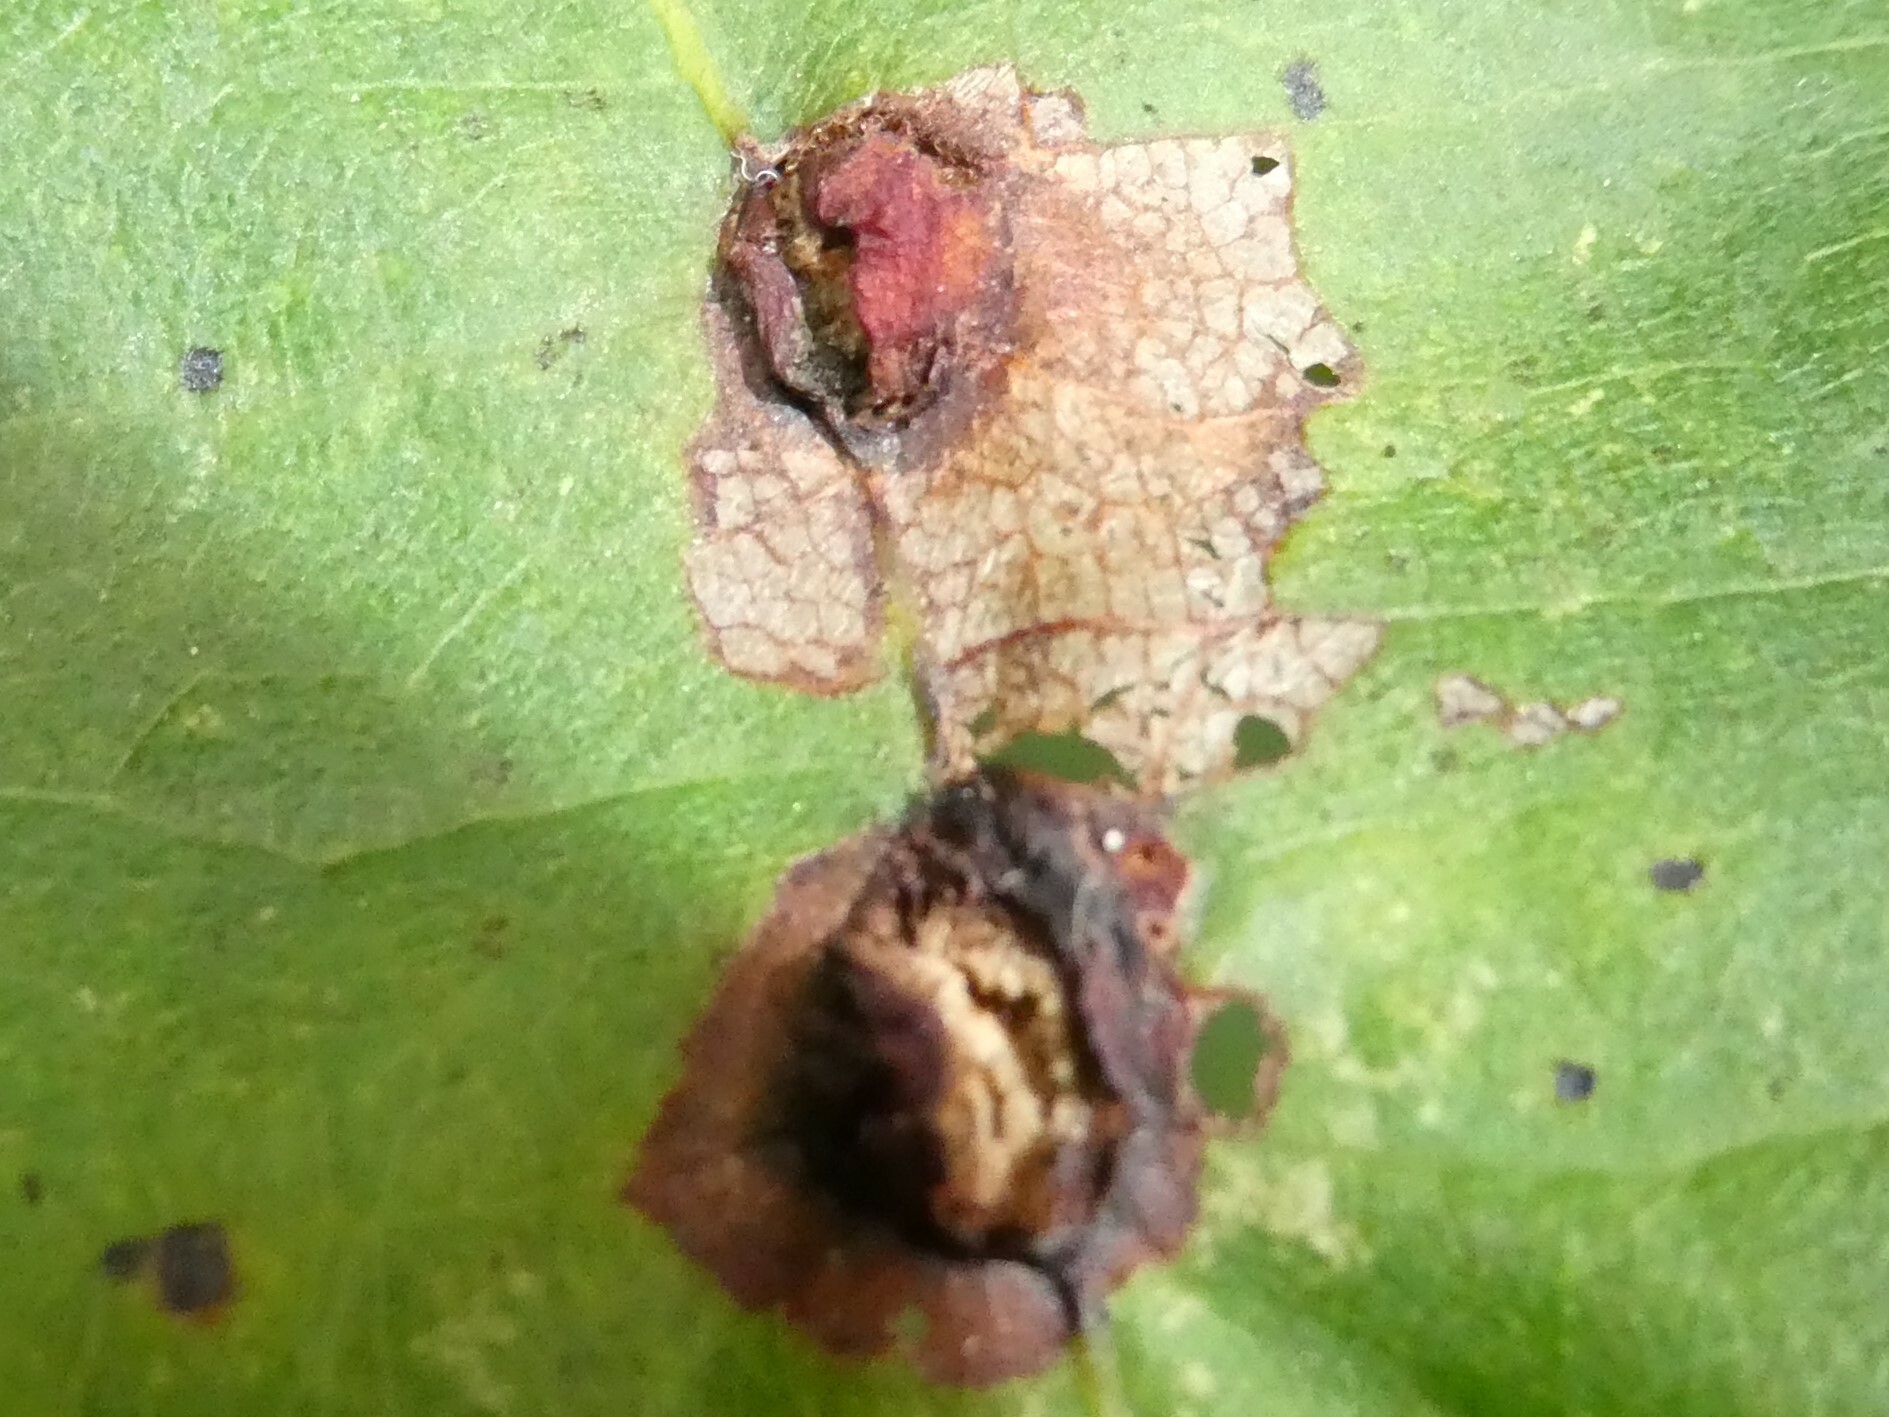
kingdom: Animalia
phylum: Arthropoda
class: Insecta
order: Diptera
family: Cecidomyiidae
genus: Contarinia
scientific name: Contarinia verrucicola
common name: Linden wart gall midge
